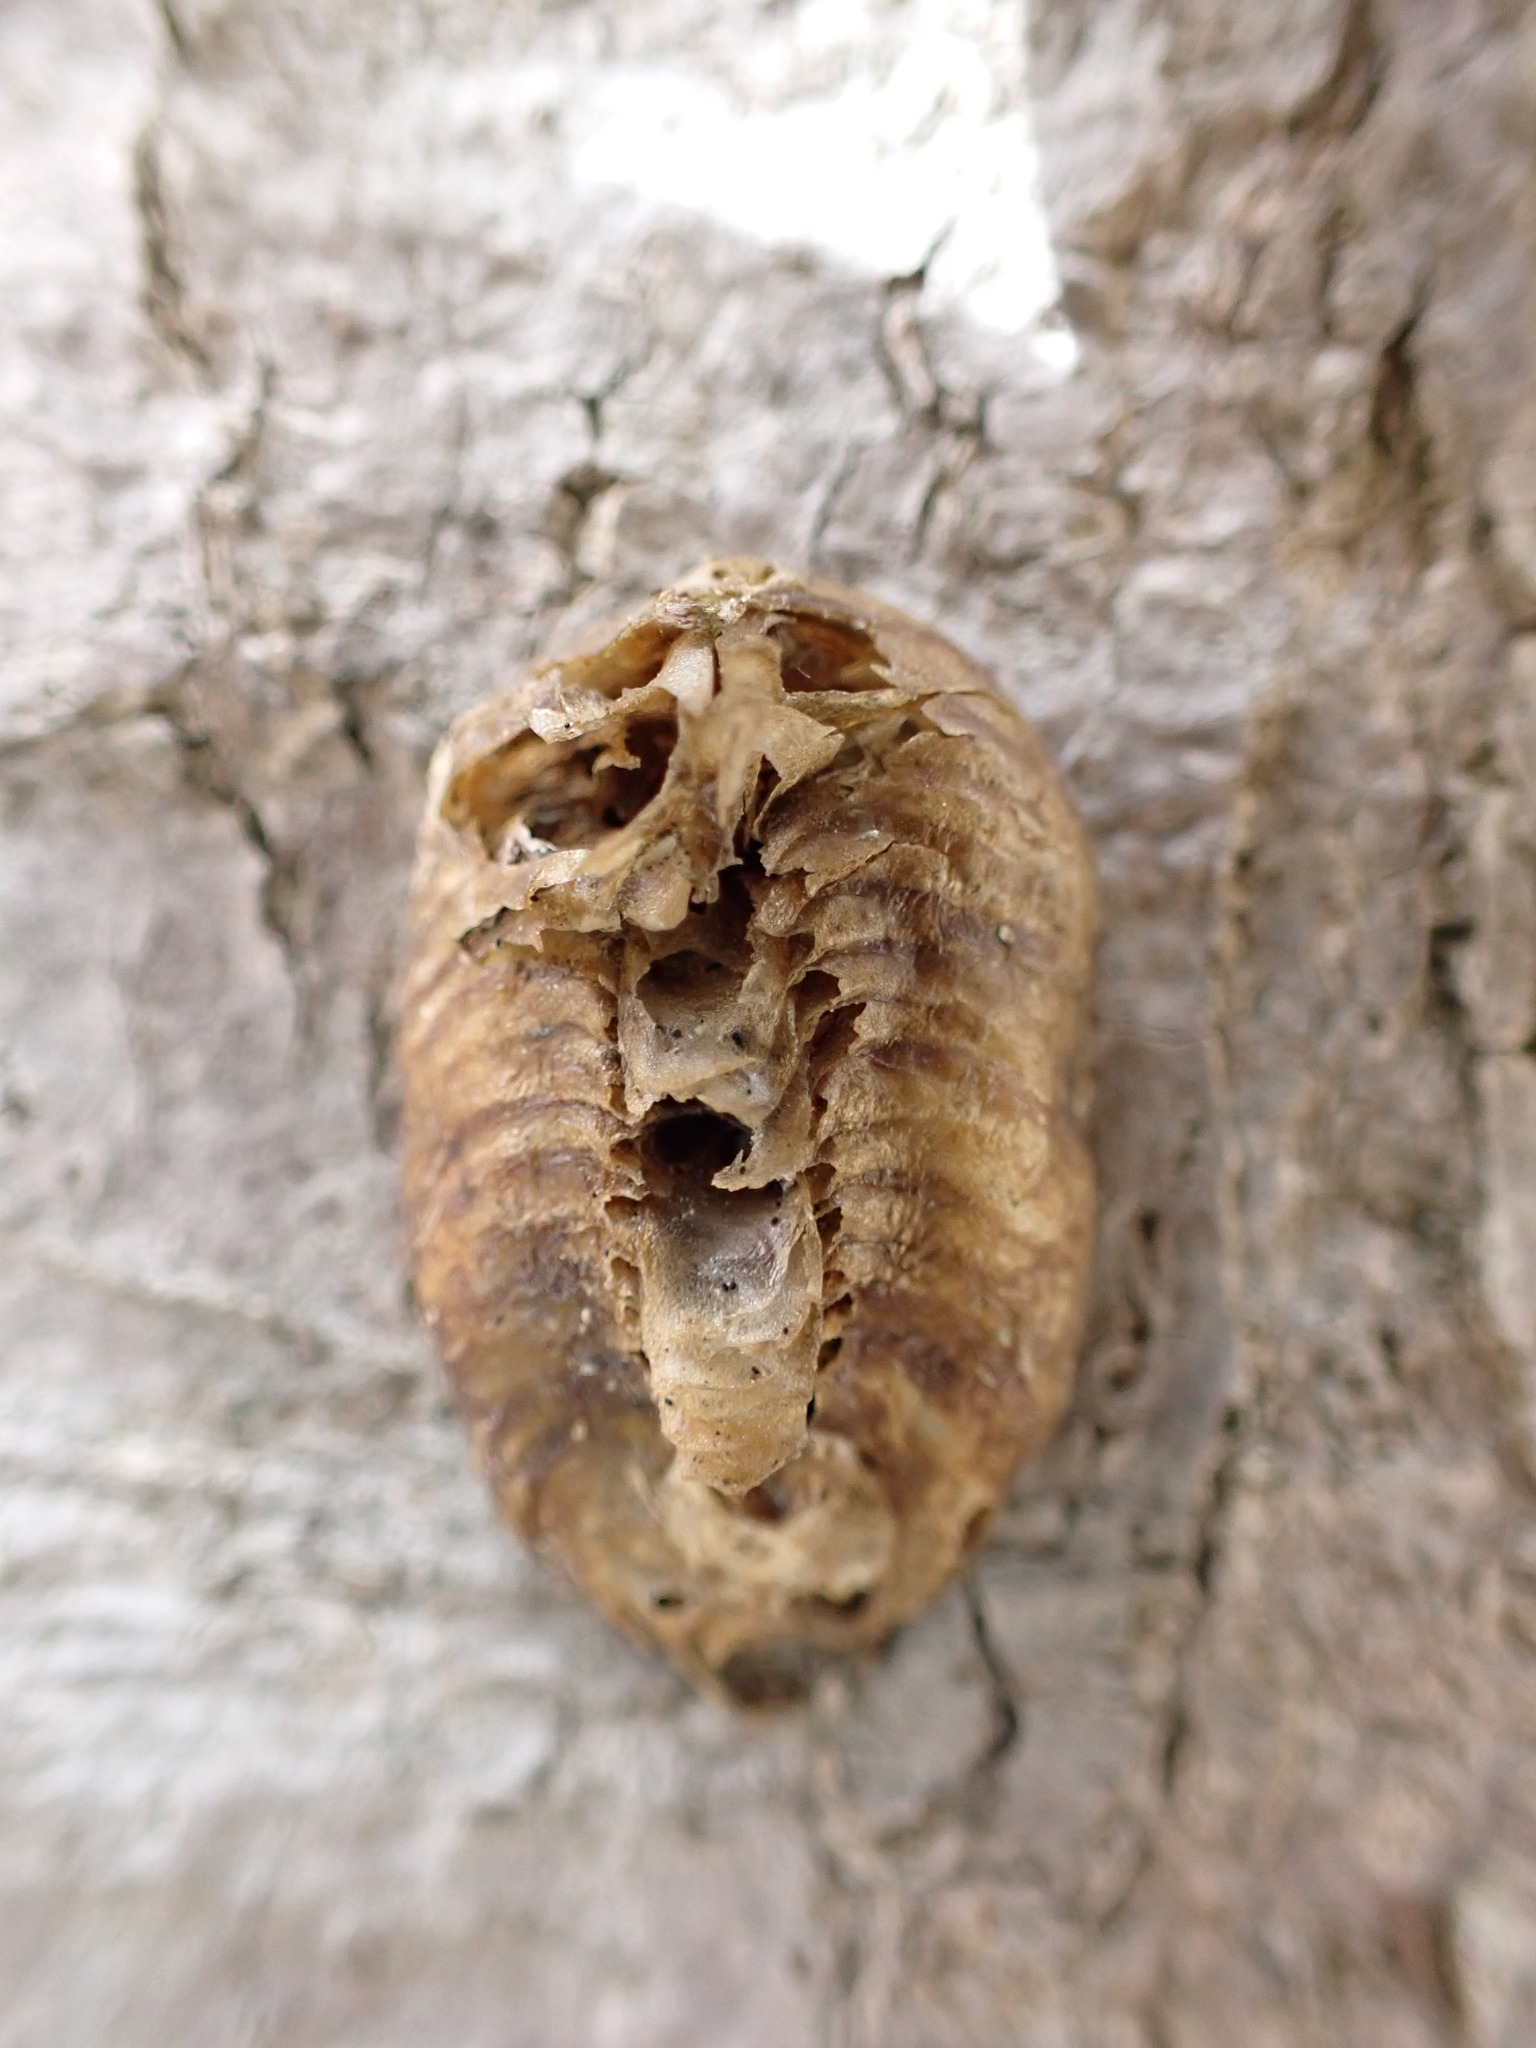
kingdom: Animalia
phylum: Arthropoda
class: Insecta
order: Mantodea
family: Mantidae
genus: Hierodula
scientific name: Hierodula patellifera
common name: Asian mantis
